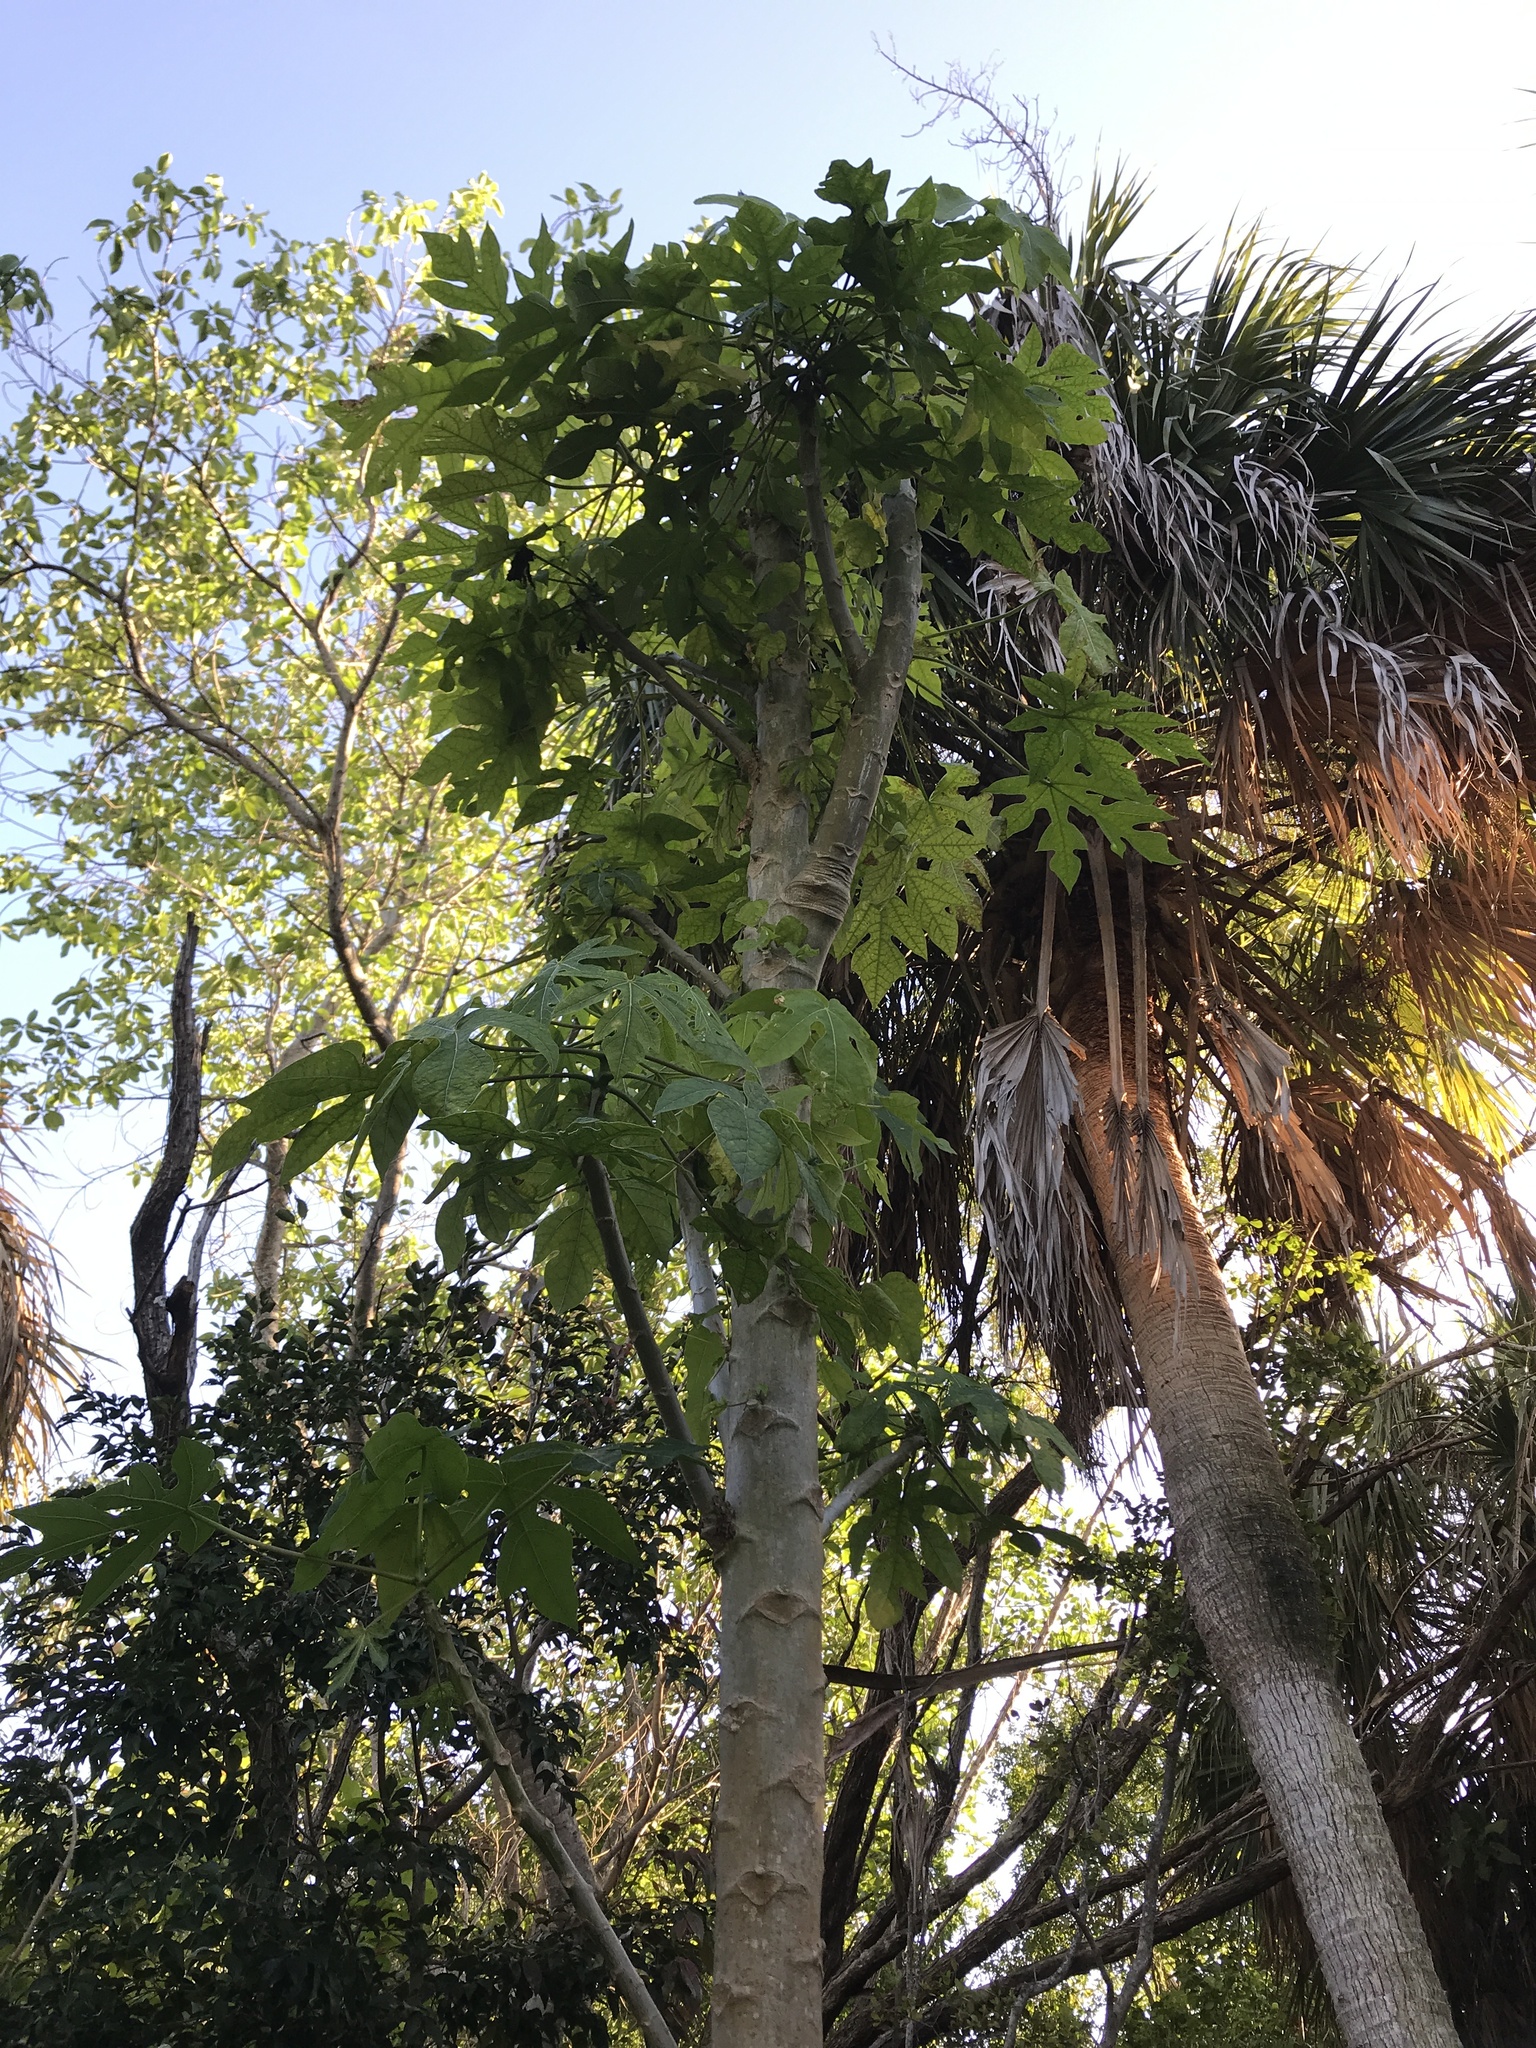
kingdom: Plantae
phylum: Tracheophyta
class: Magnoliopsida
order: Brassicales
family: Caricaceae
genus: Carica
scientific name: Carica papaya
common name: Papaya
